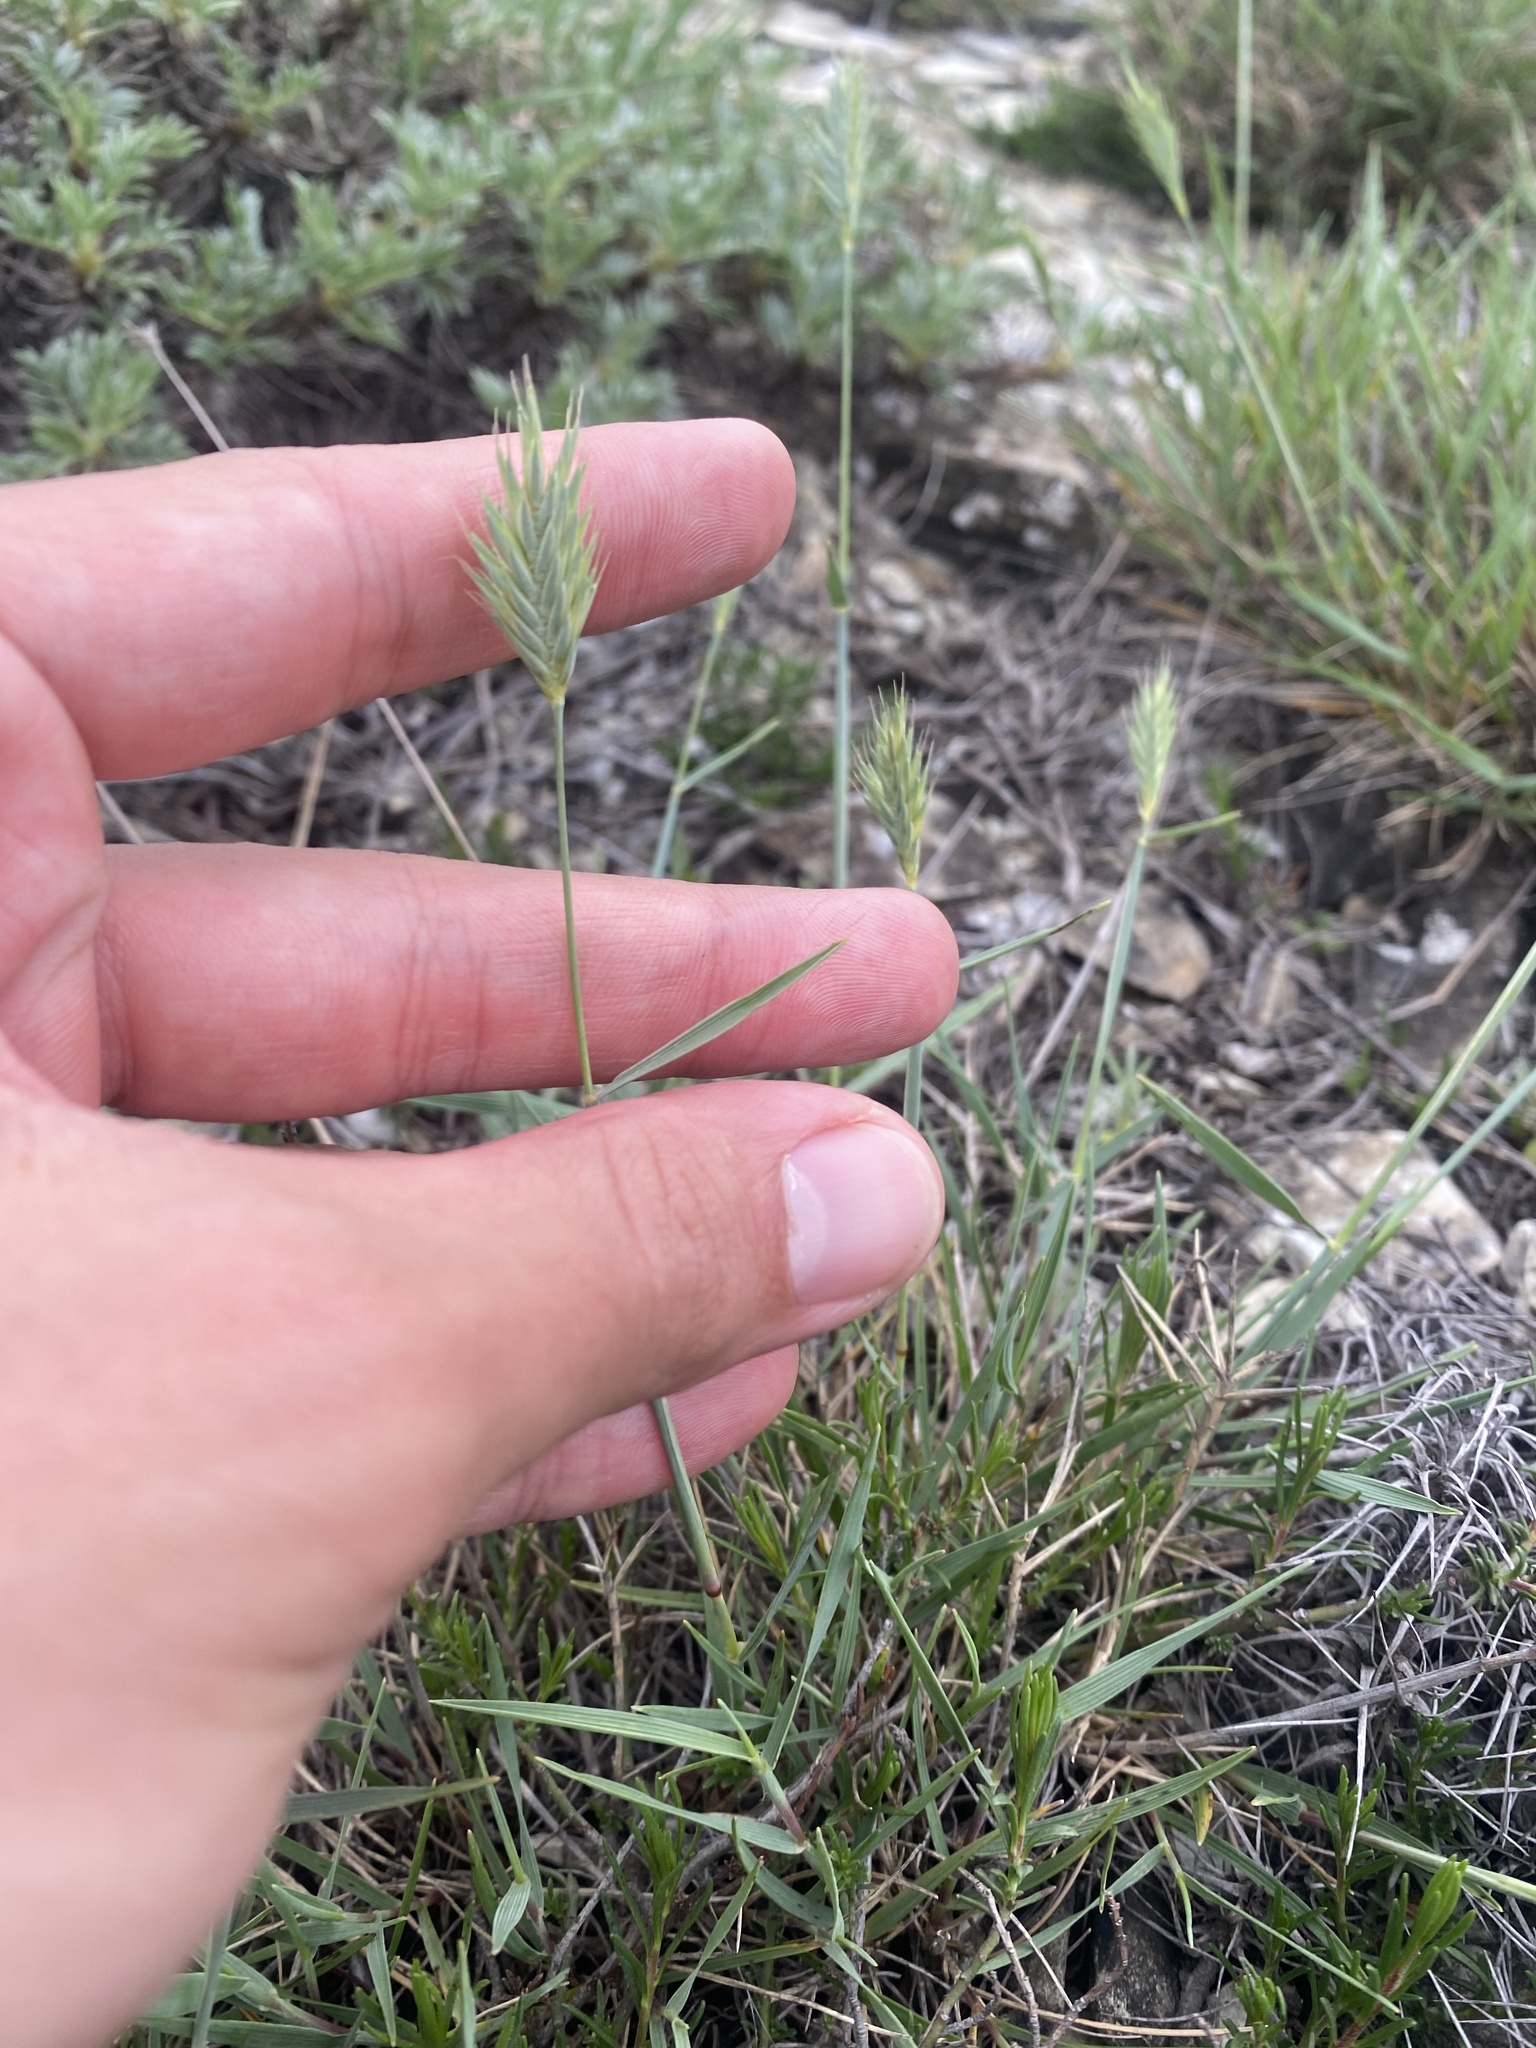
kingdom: Plantae
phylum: Tracheophyta
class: Liliopsida
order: Poales
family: Poaceae
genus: Agropyron
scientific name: Agropyron cristatum
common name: Crested wheatgrass
